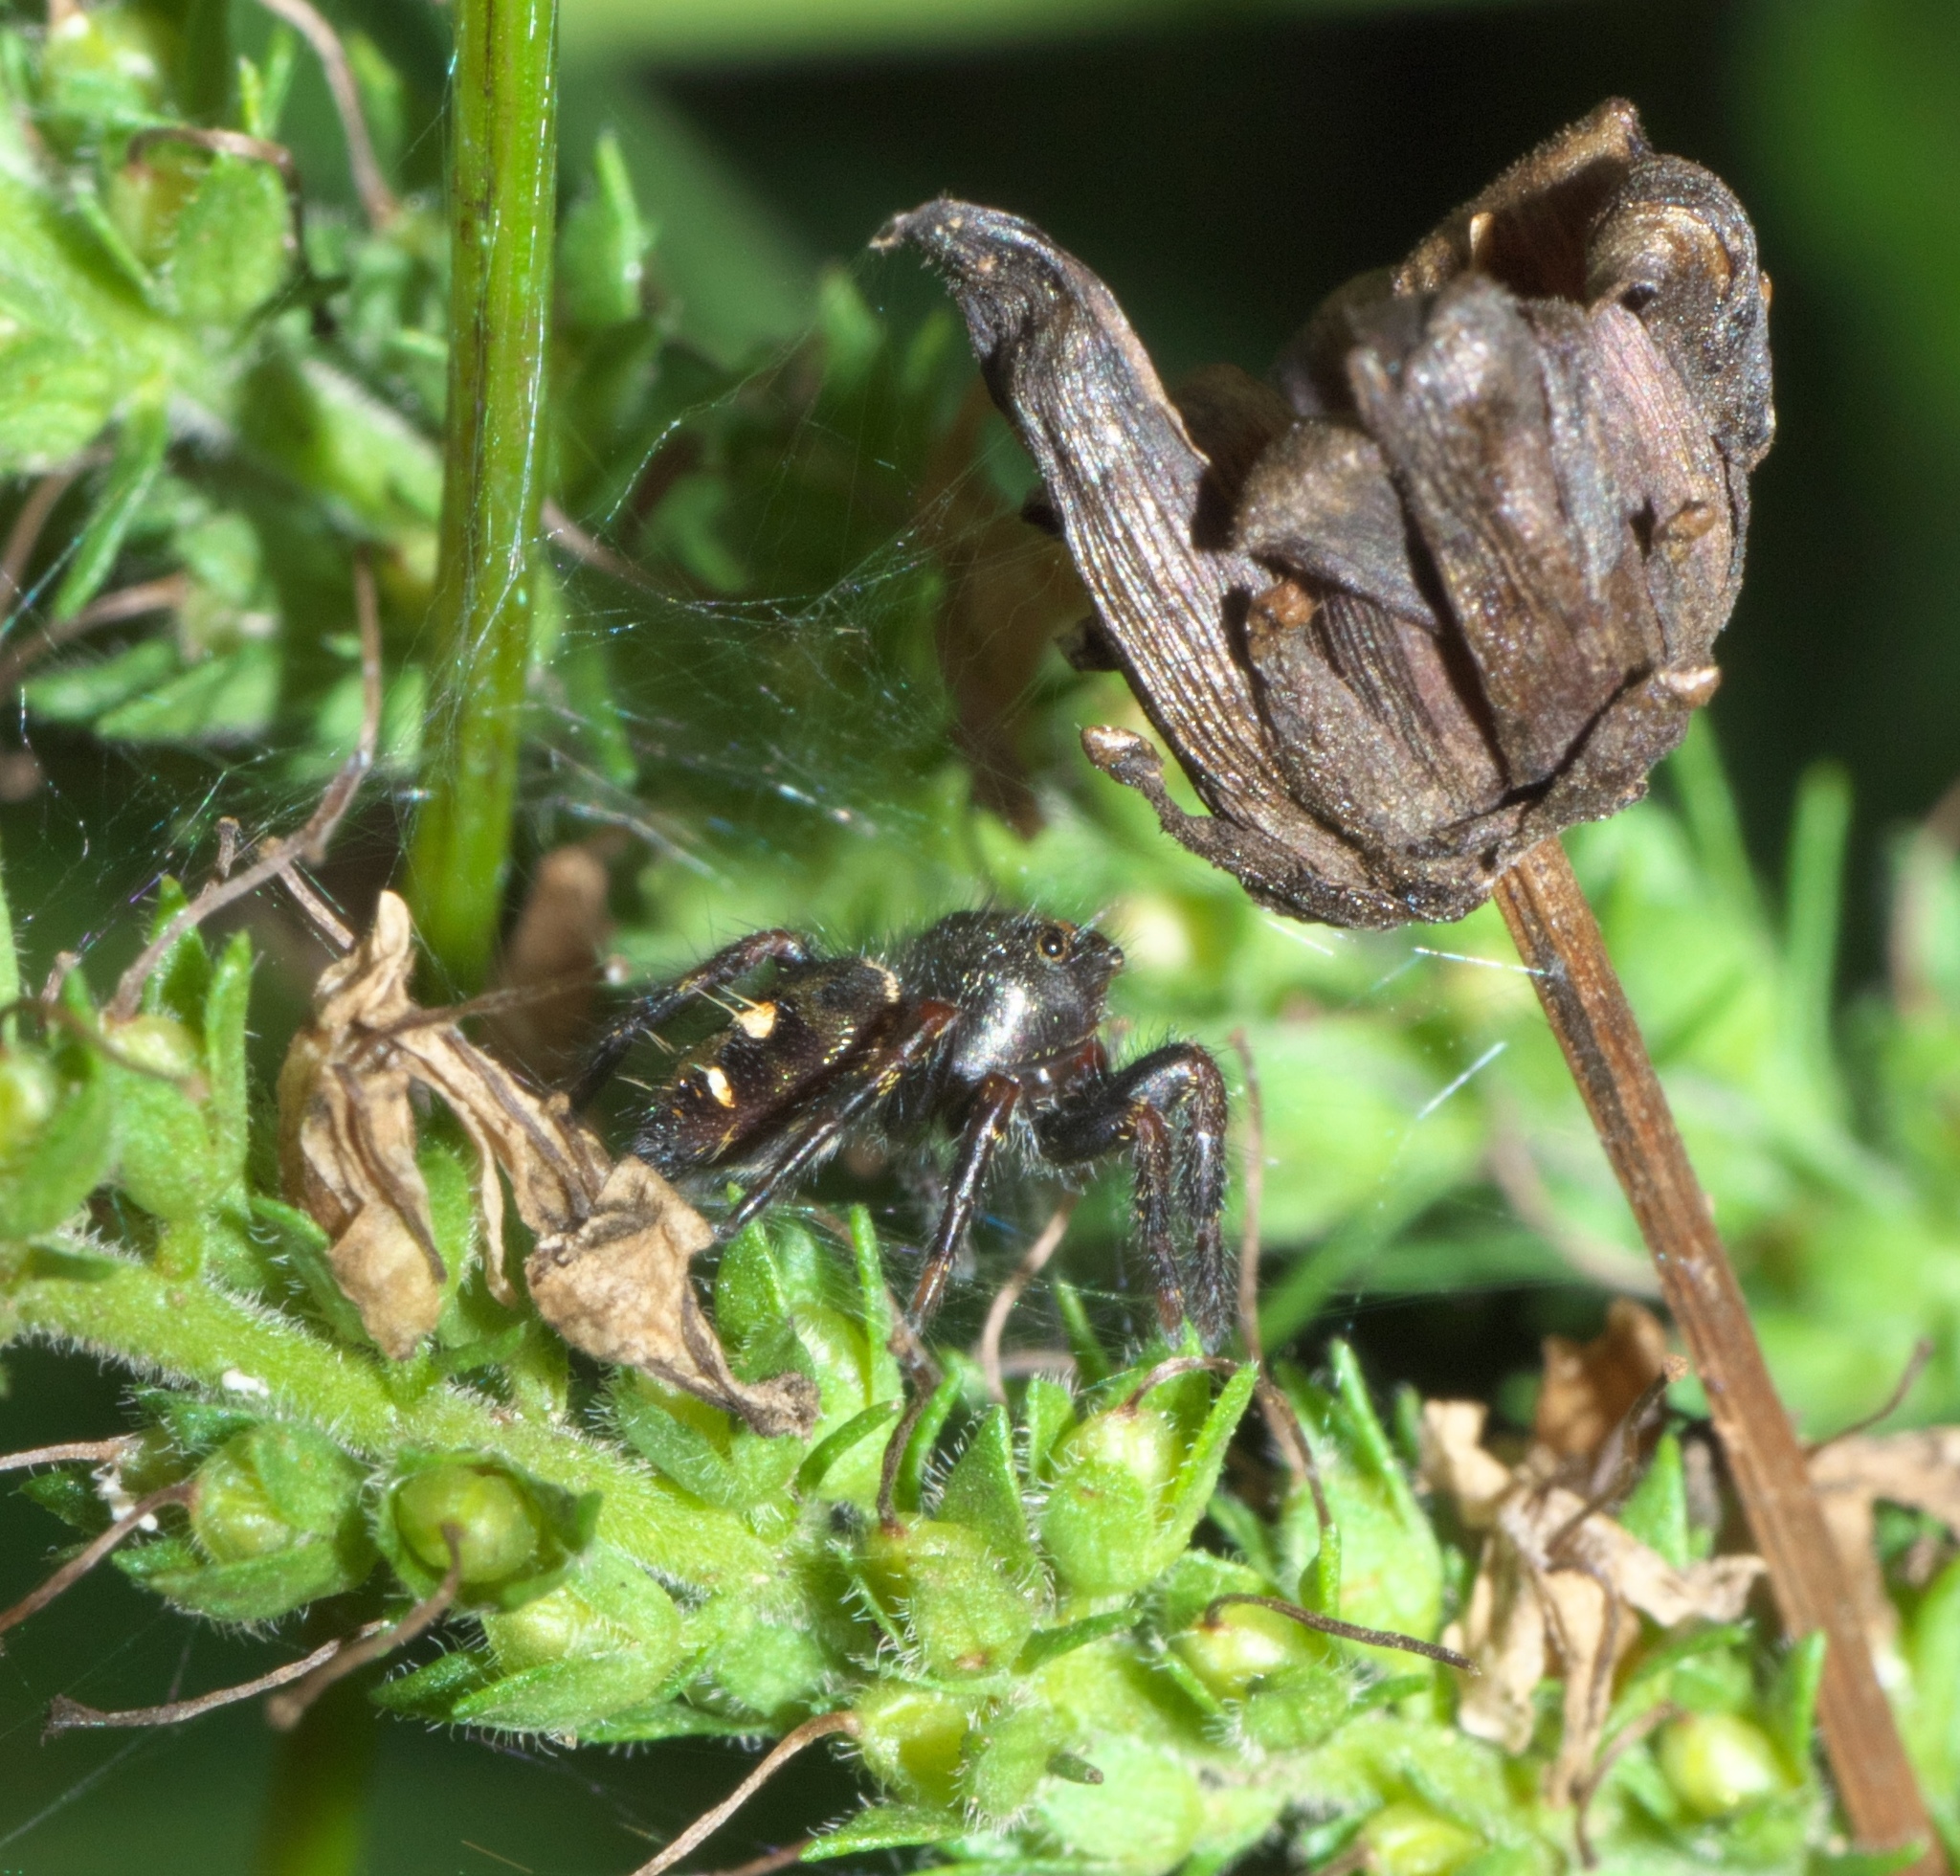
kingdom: Animalia
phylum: Arthropoda
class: Arachnida
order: Araneae
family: Salticidae
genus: Phidippus
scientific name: Phidippus audax
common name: Bold jumper
